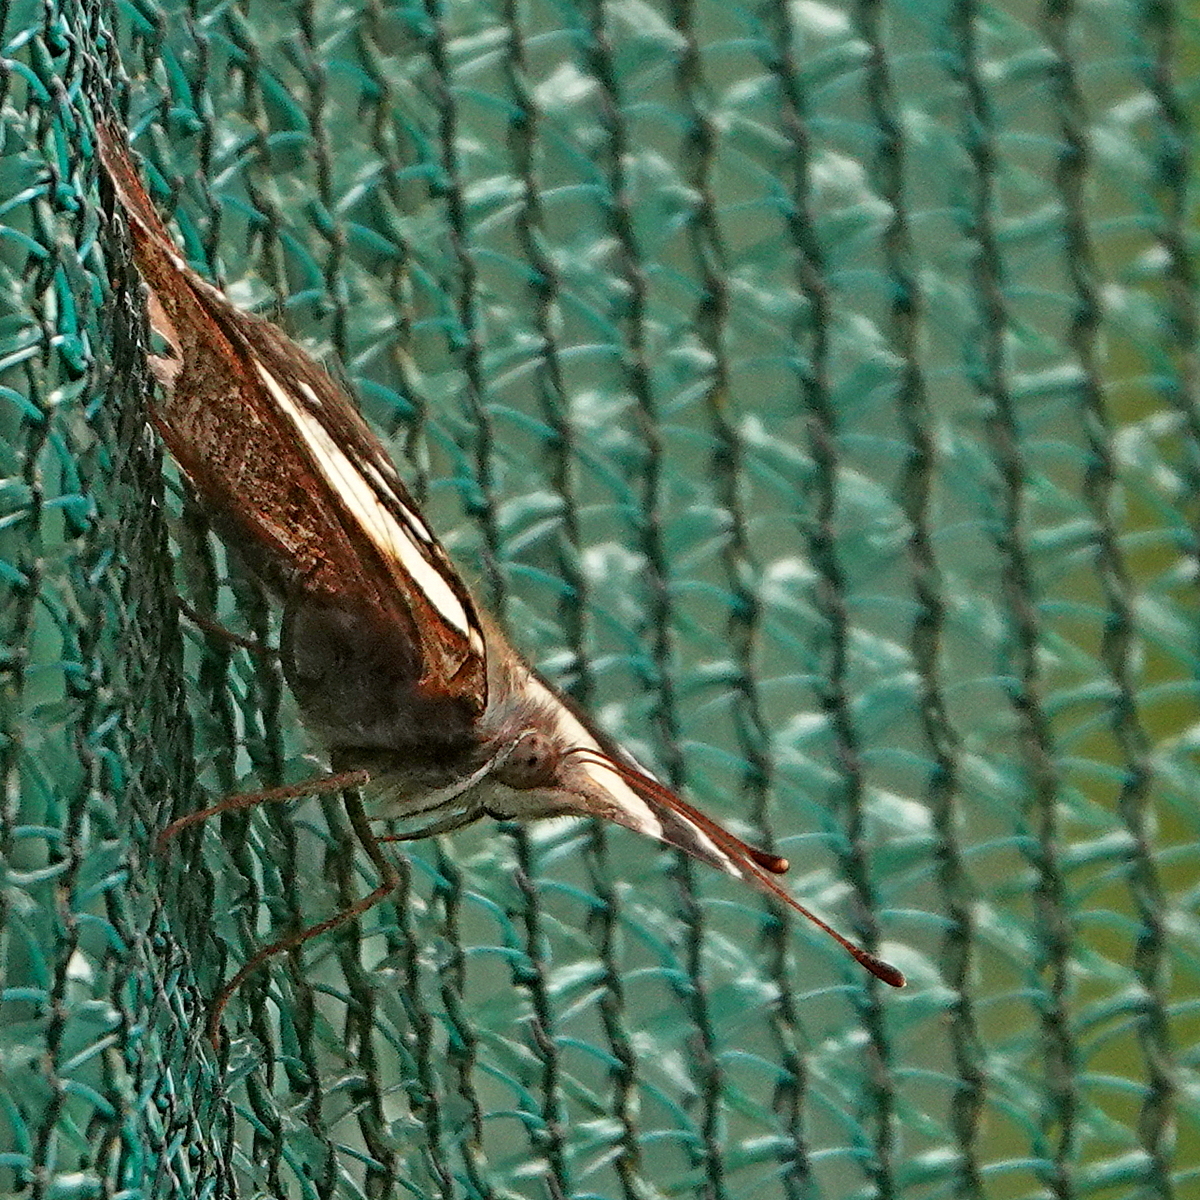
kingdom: Animalia
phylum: Arthropoda
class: Insecta
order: Lepidoptera
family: Nymphalidae
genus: Vanessa
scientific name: Vanessa itea
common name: Yellow admiral
